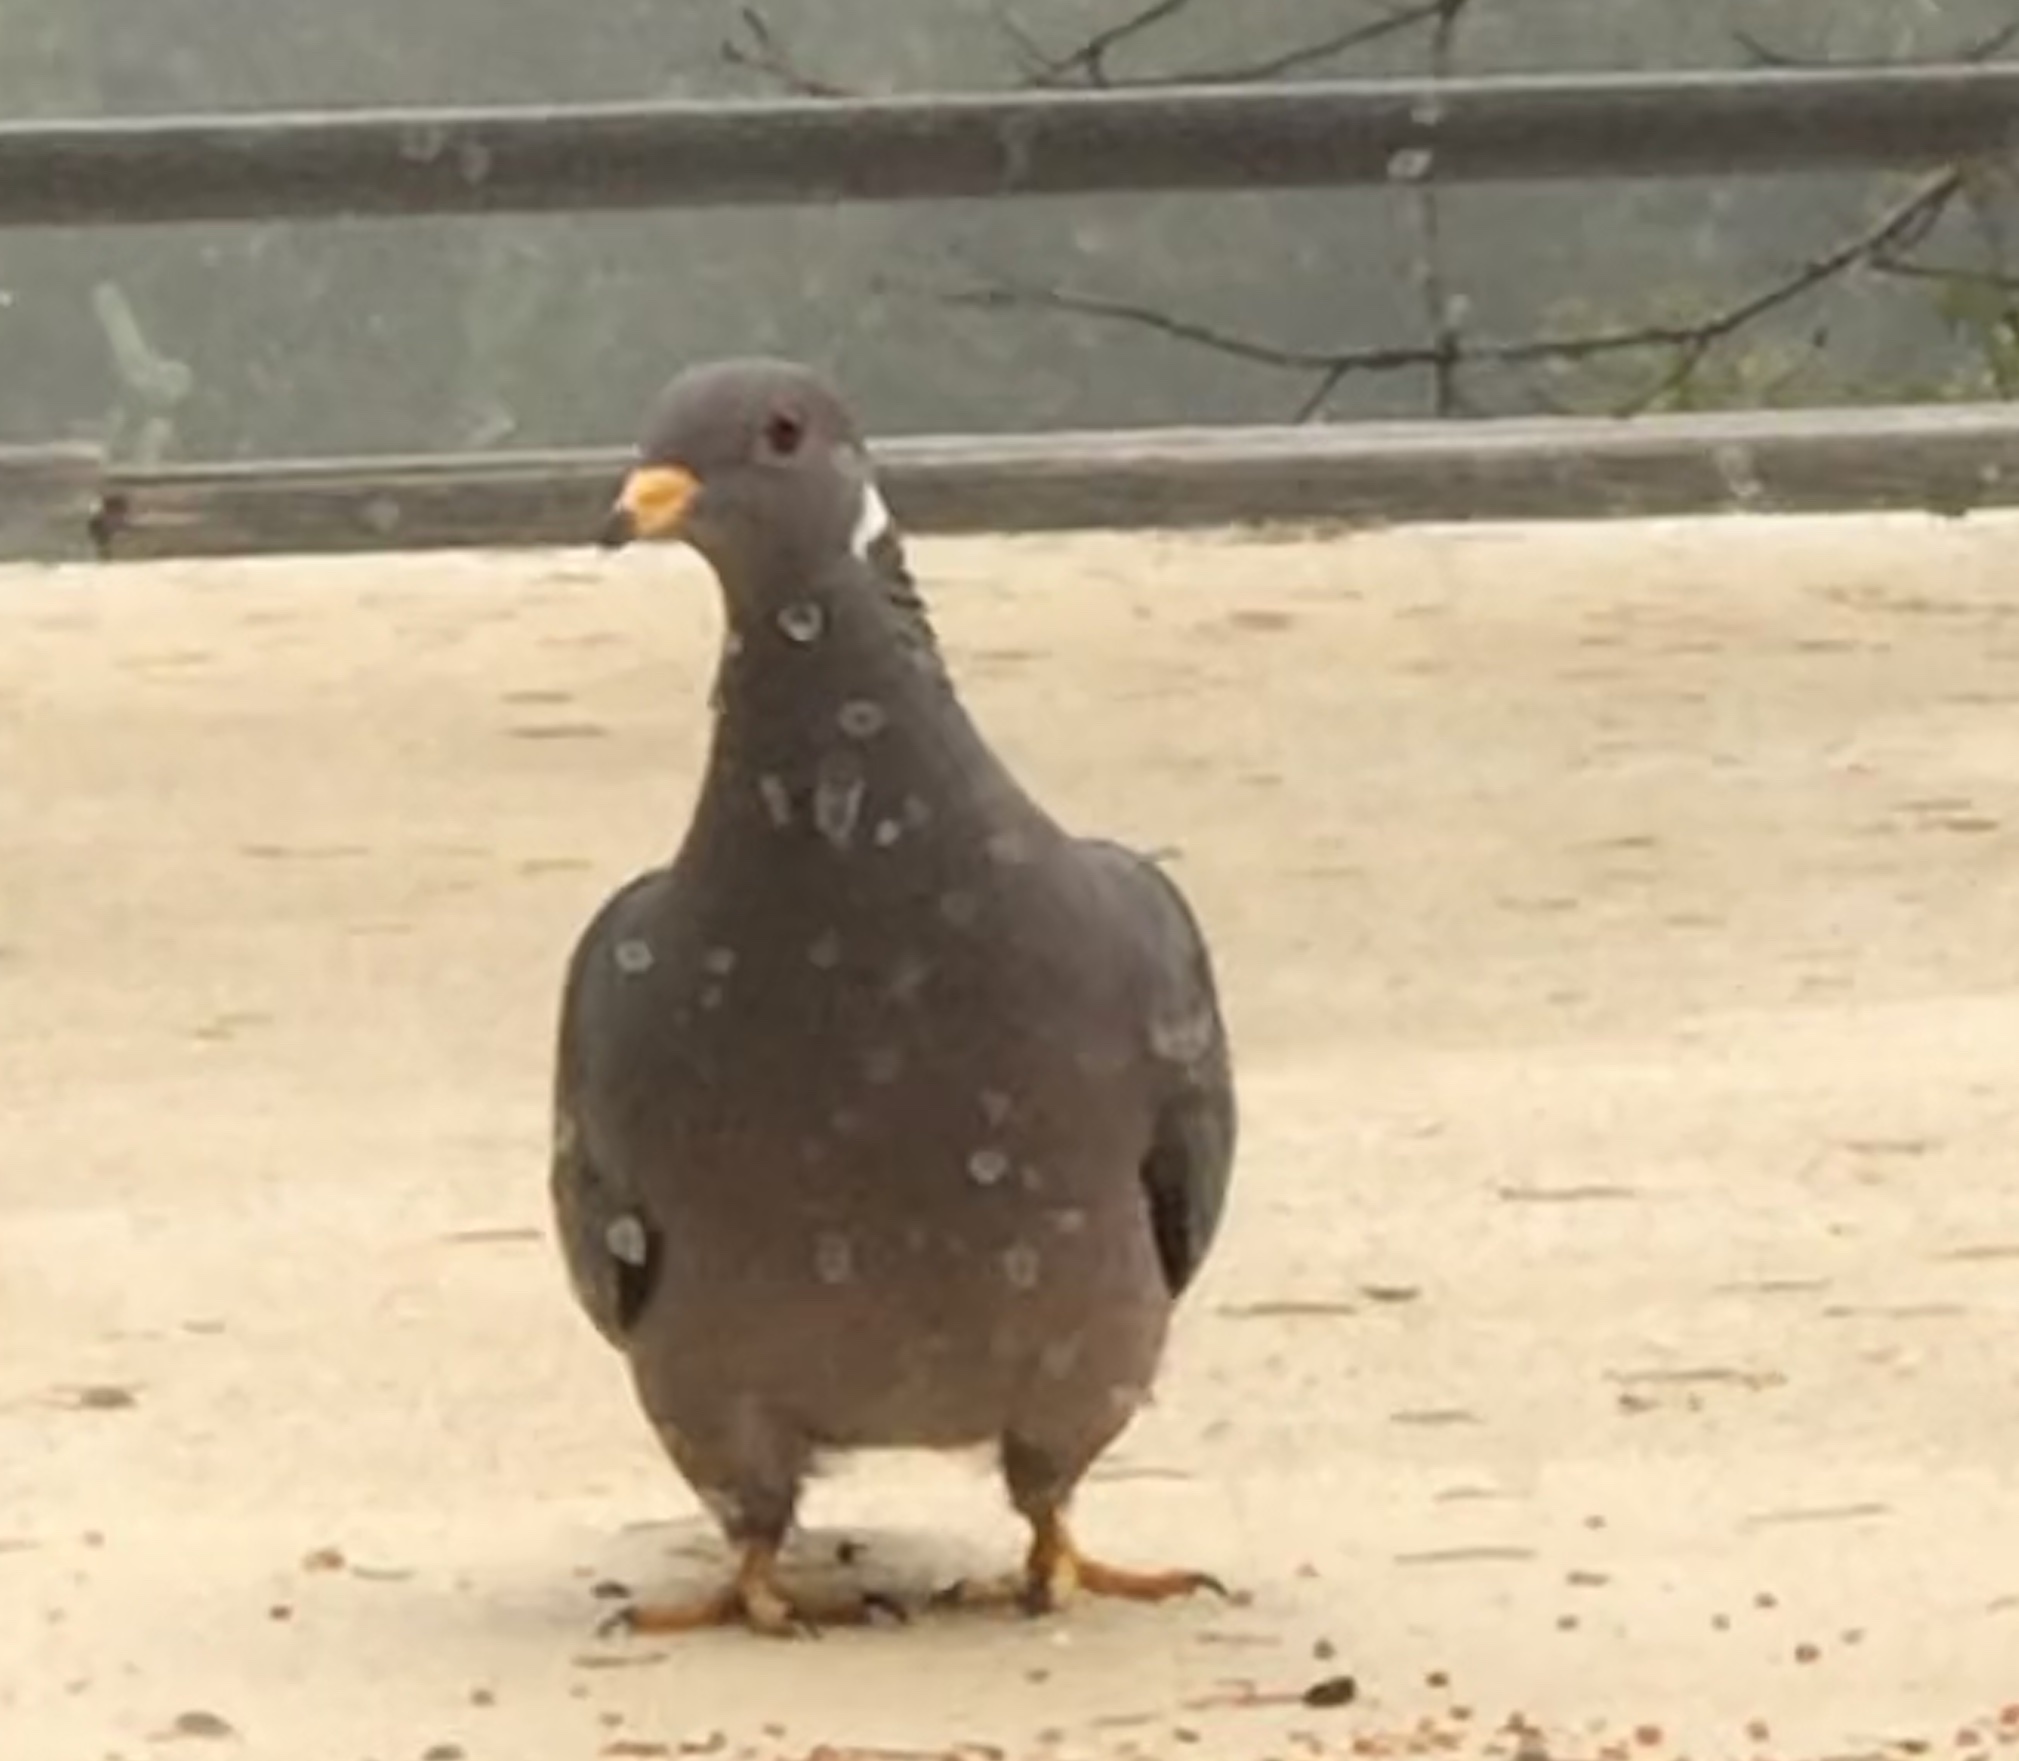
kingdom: Animalia
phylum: Chordata
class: Aves
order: Columbiformes
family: Columbidae
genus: Patagioenas
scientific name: Patagioenas fasciata
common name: Band-tailed pigeon
